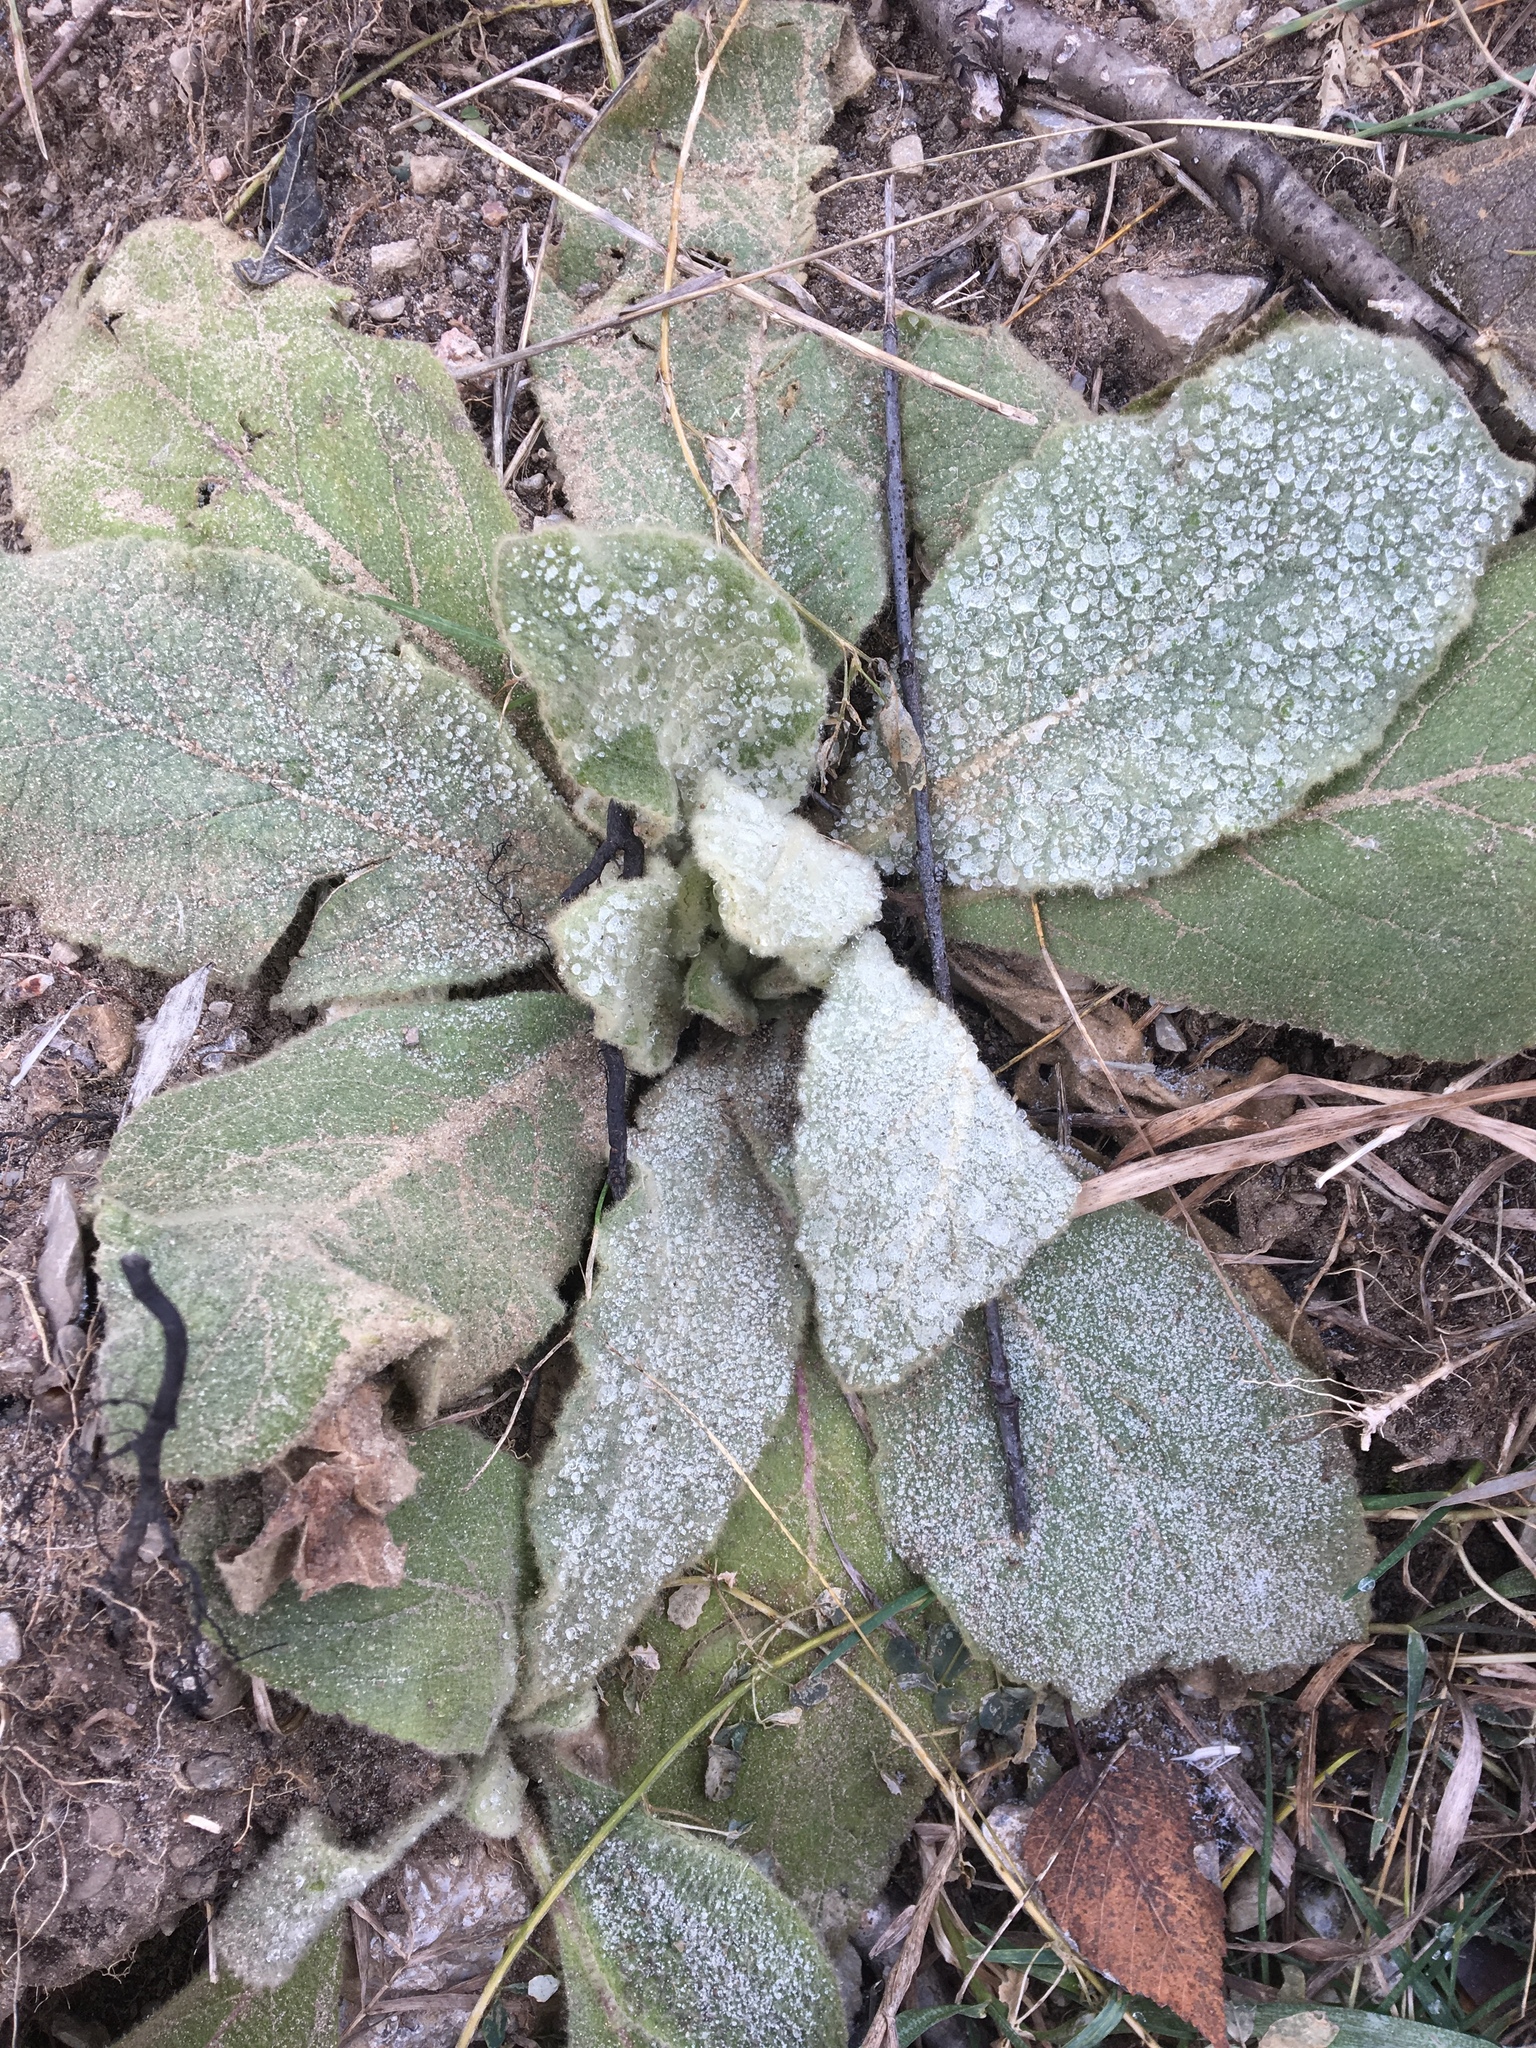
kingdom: Plantae
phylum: Tracheophyta
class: Magnoliopsida
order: Lamiales
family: Scrophulariaceae
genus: Verbascum
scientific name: Verbascum thapsus
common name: Common mullein
